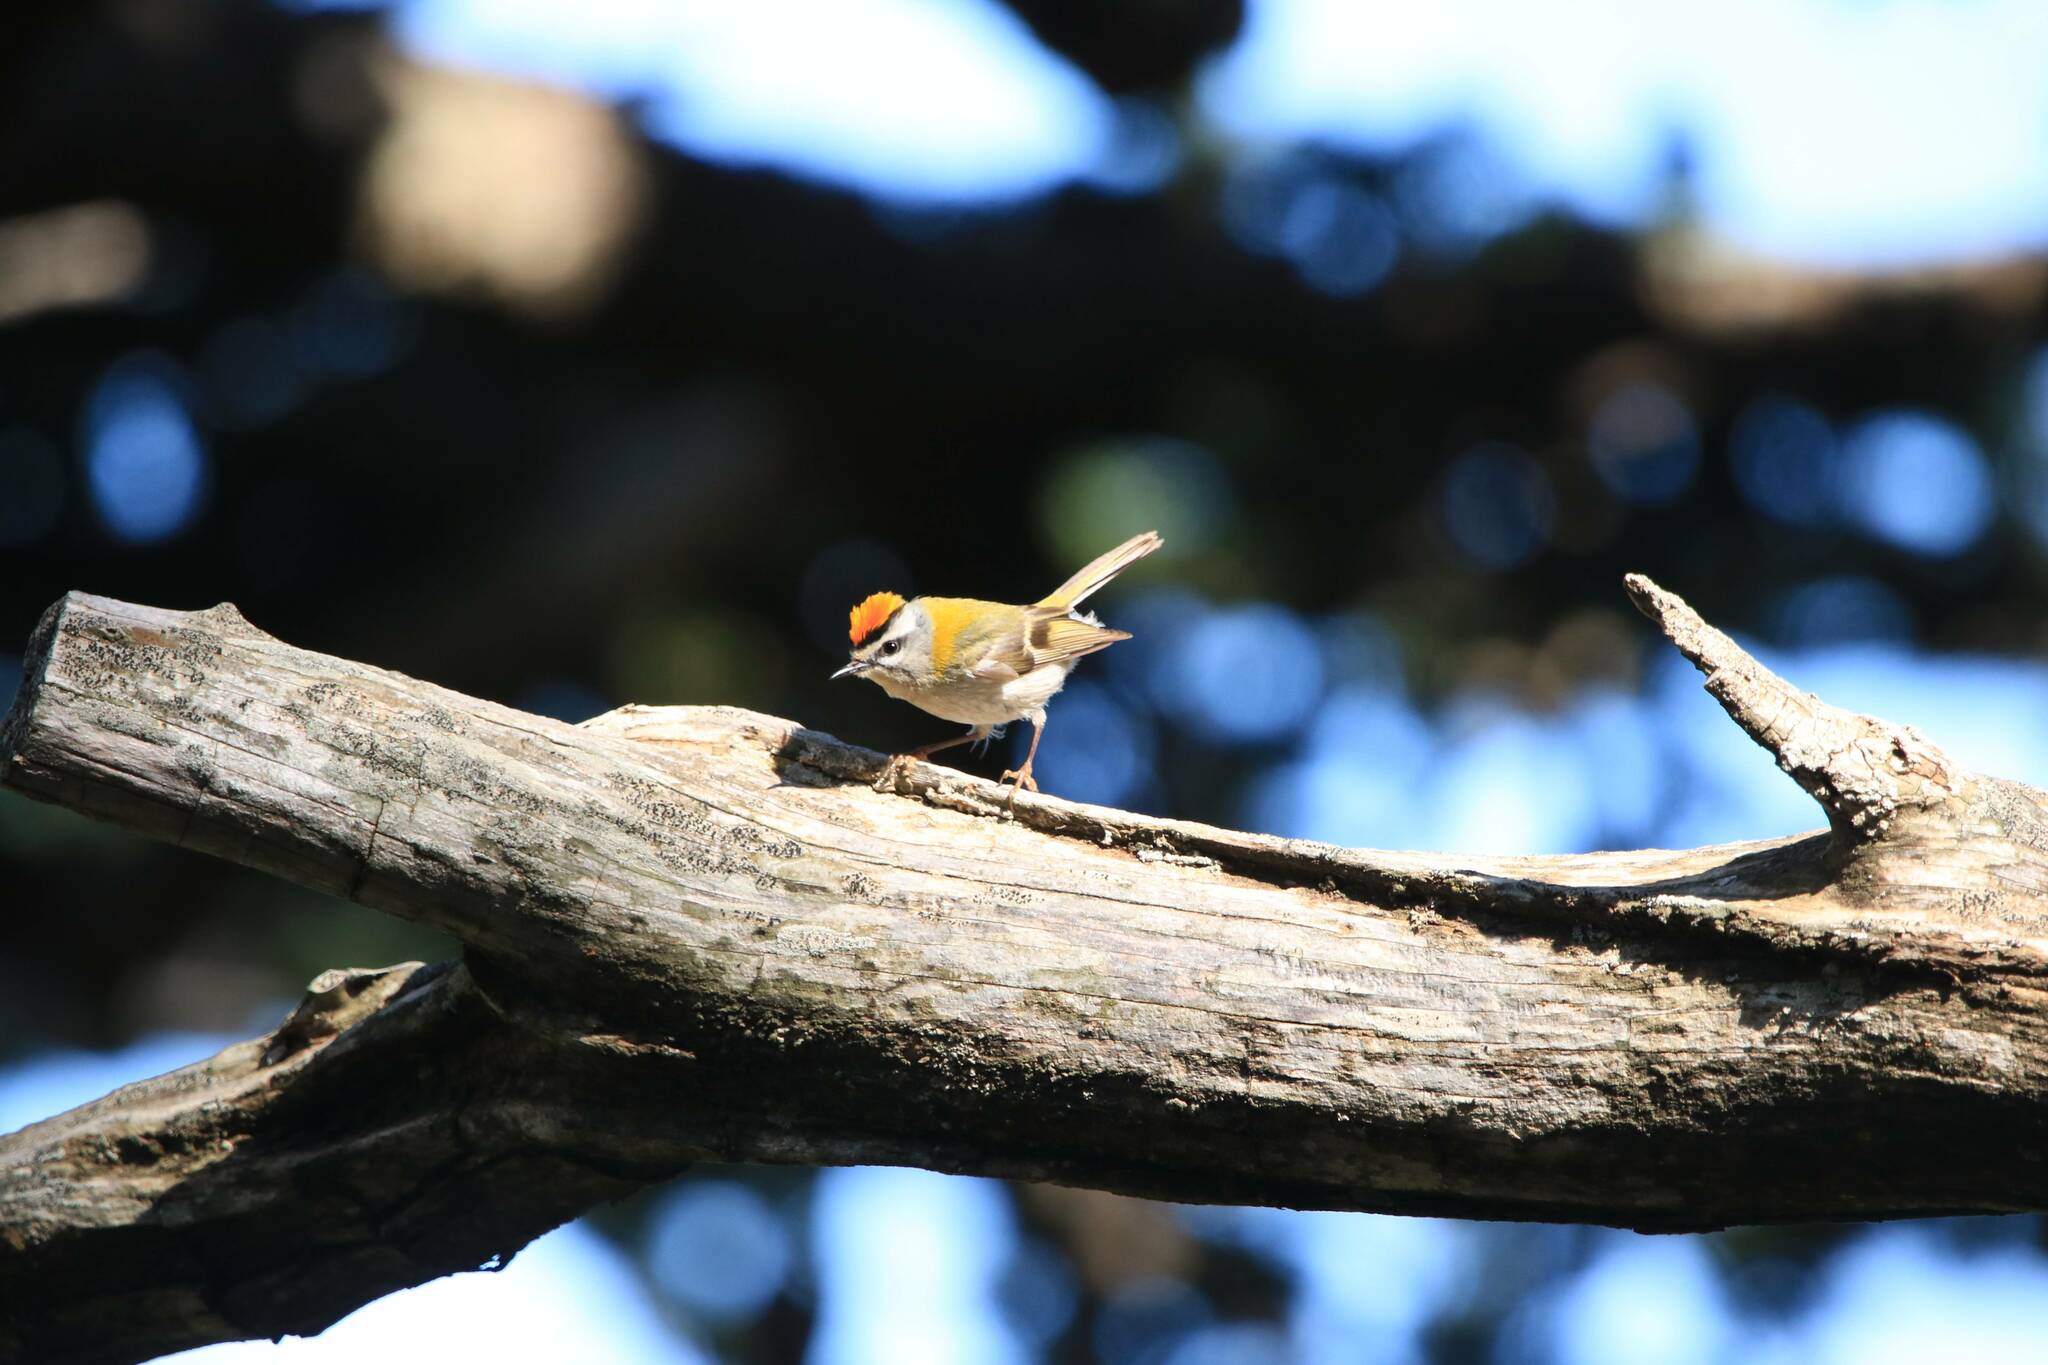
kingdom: Animalia
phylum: Chordata
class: Aves
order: Passeriformes
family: Regulidae
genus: Regulus
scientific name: Regulus ignicapilla
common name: Firecrest
